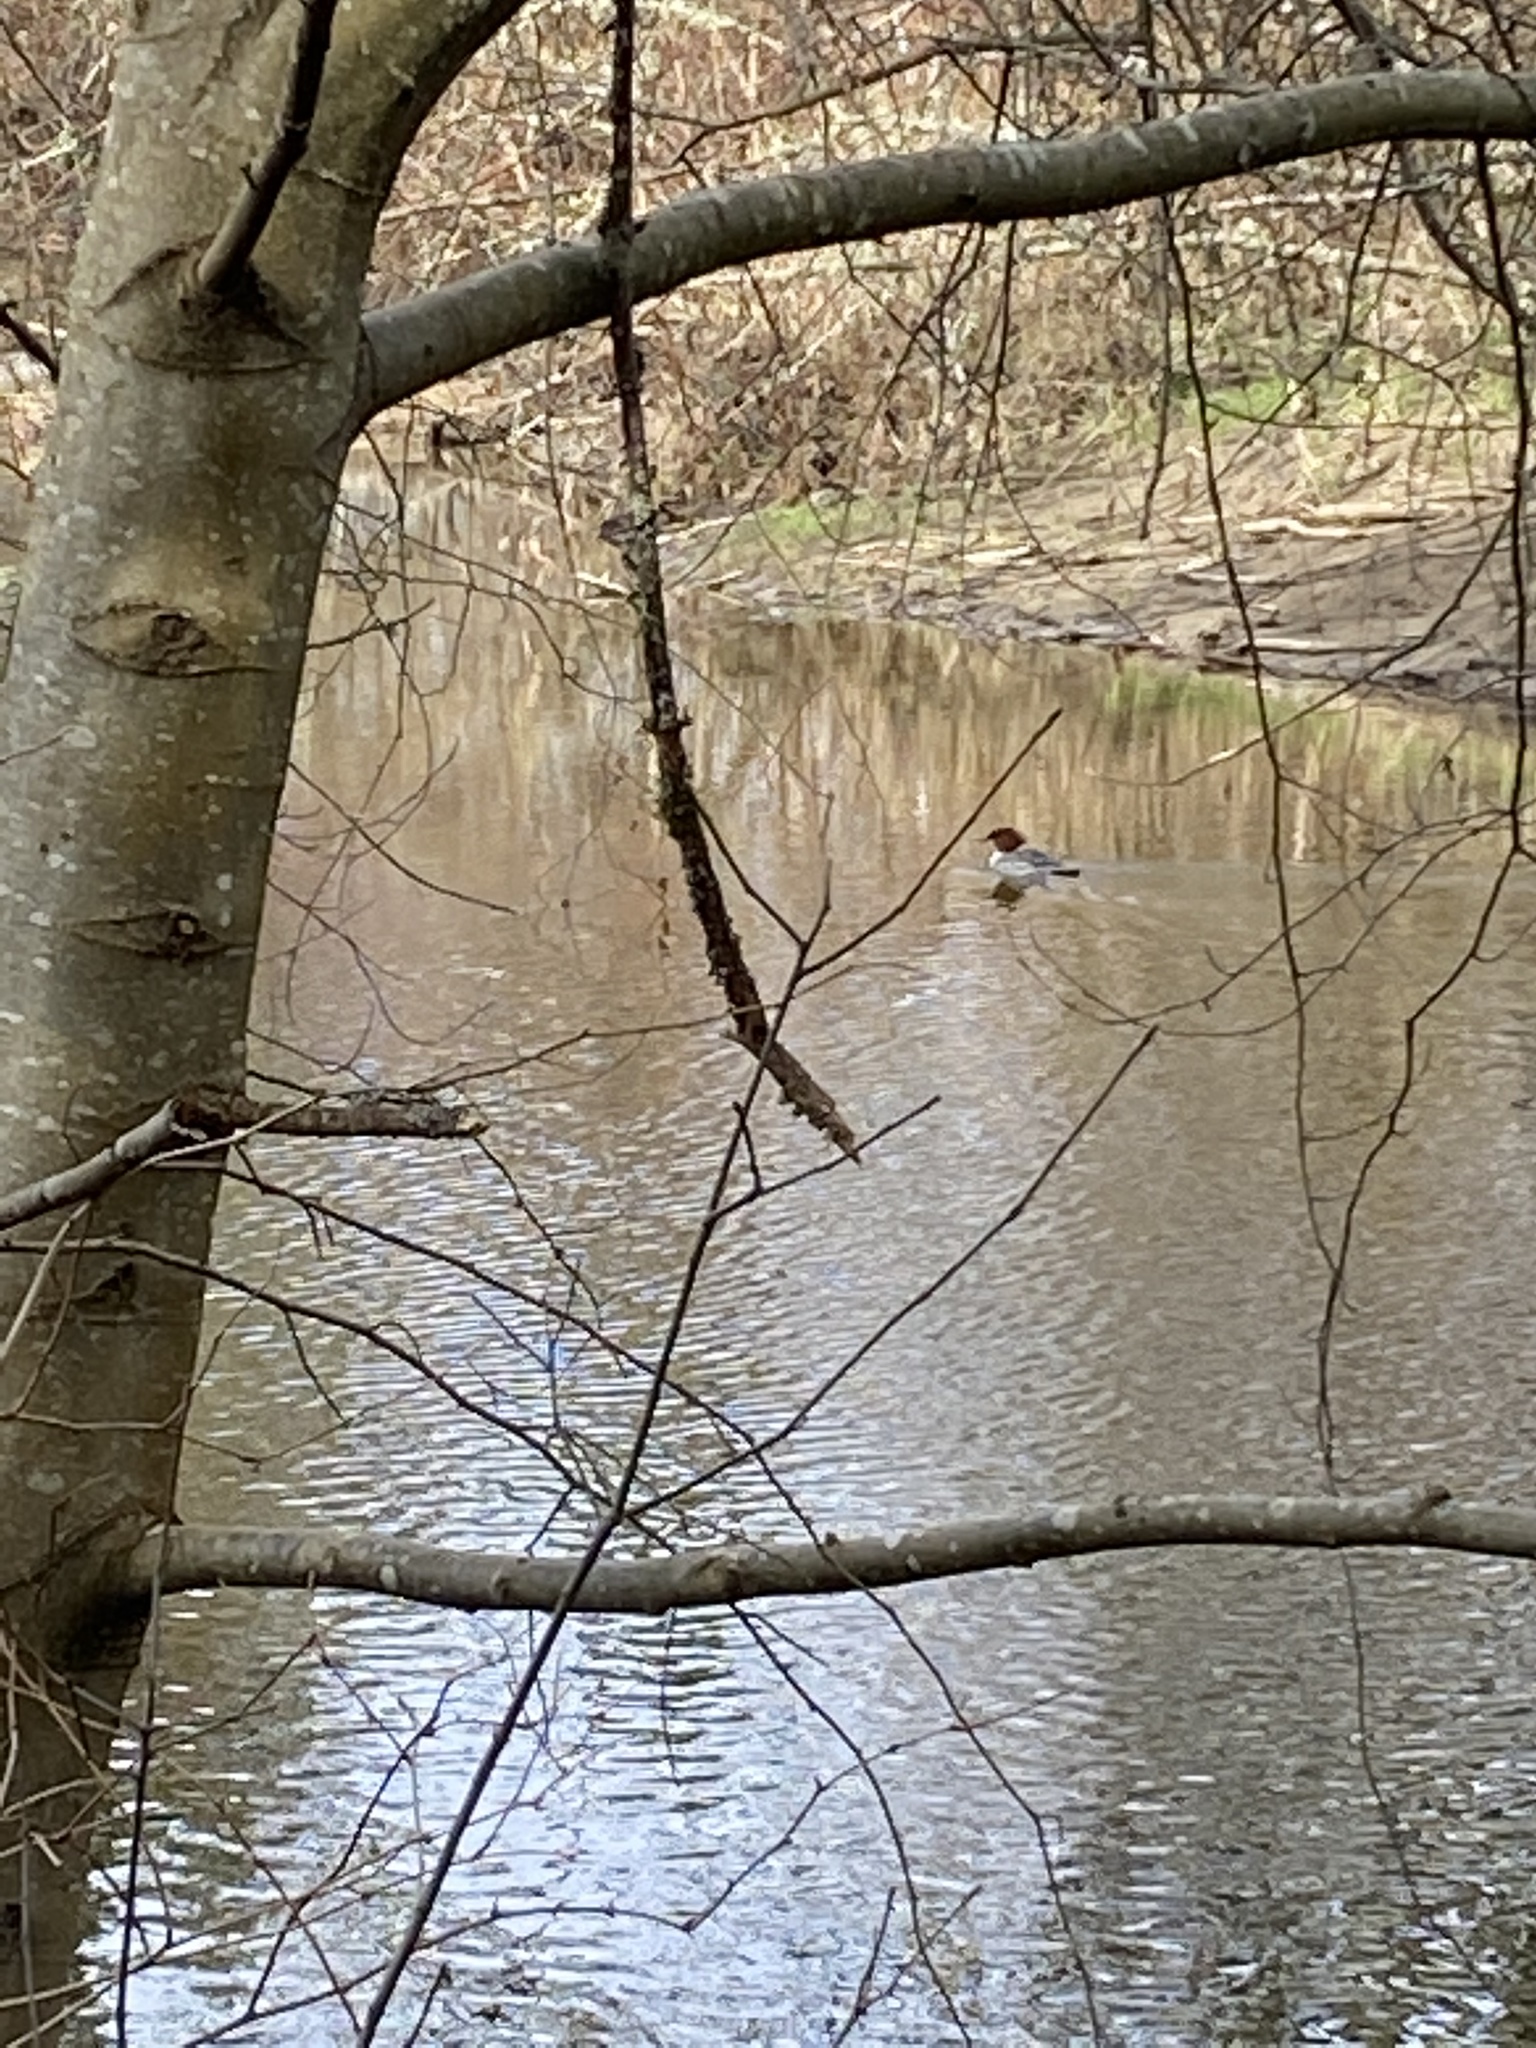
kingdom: Animalia
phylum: Chordata
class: Aves
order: Anseriformes
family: Anatidae
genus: Mergus
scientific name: Mergus merganser
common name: Common merganser
